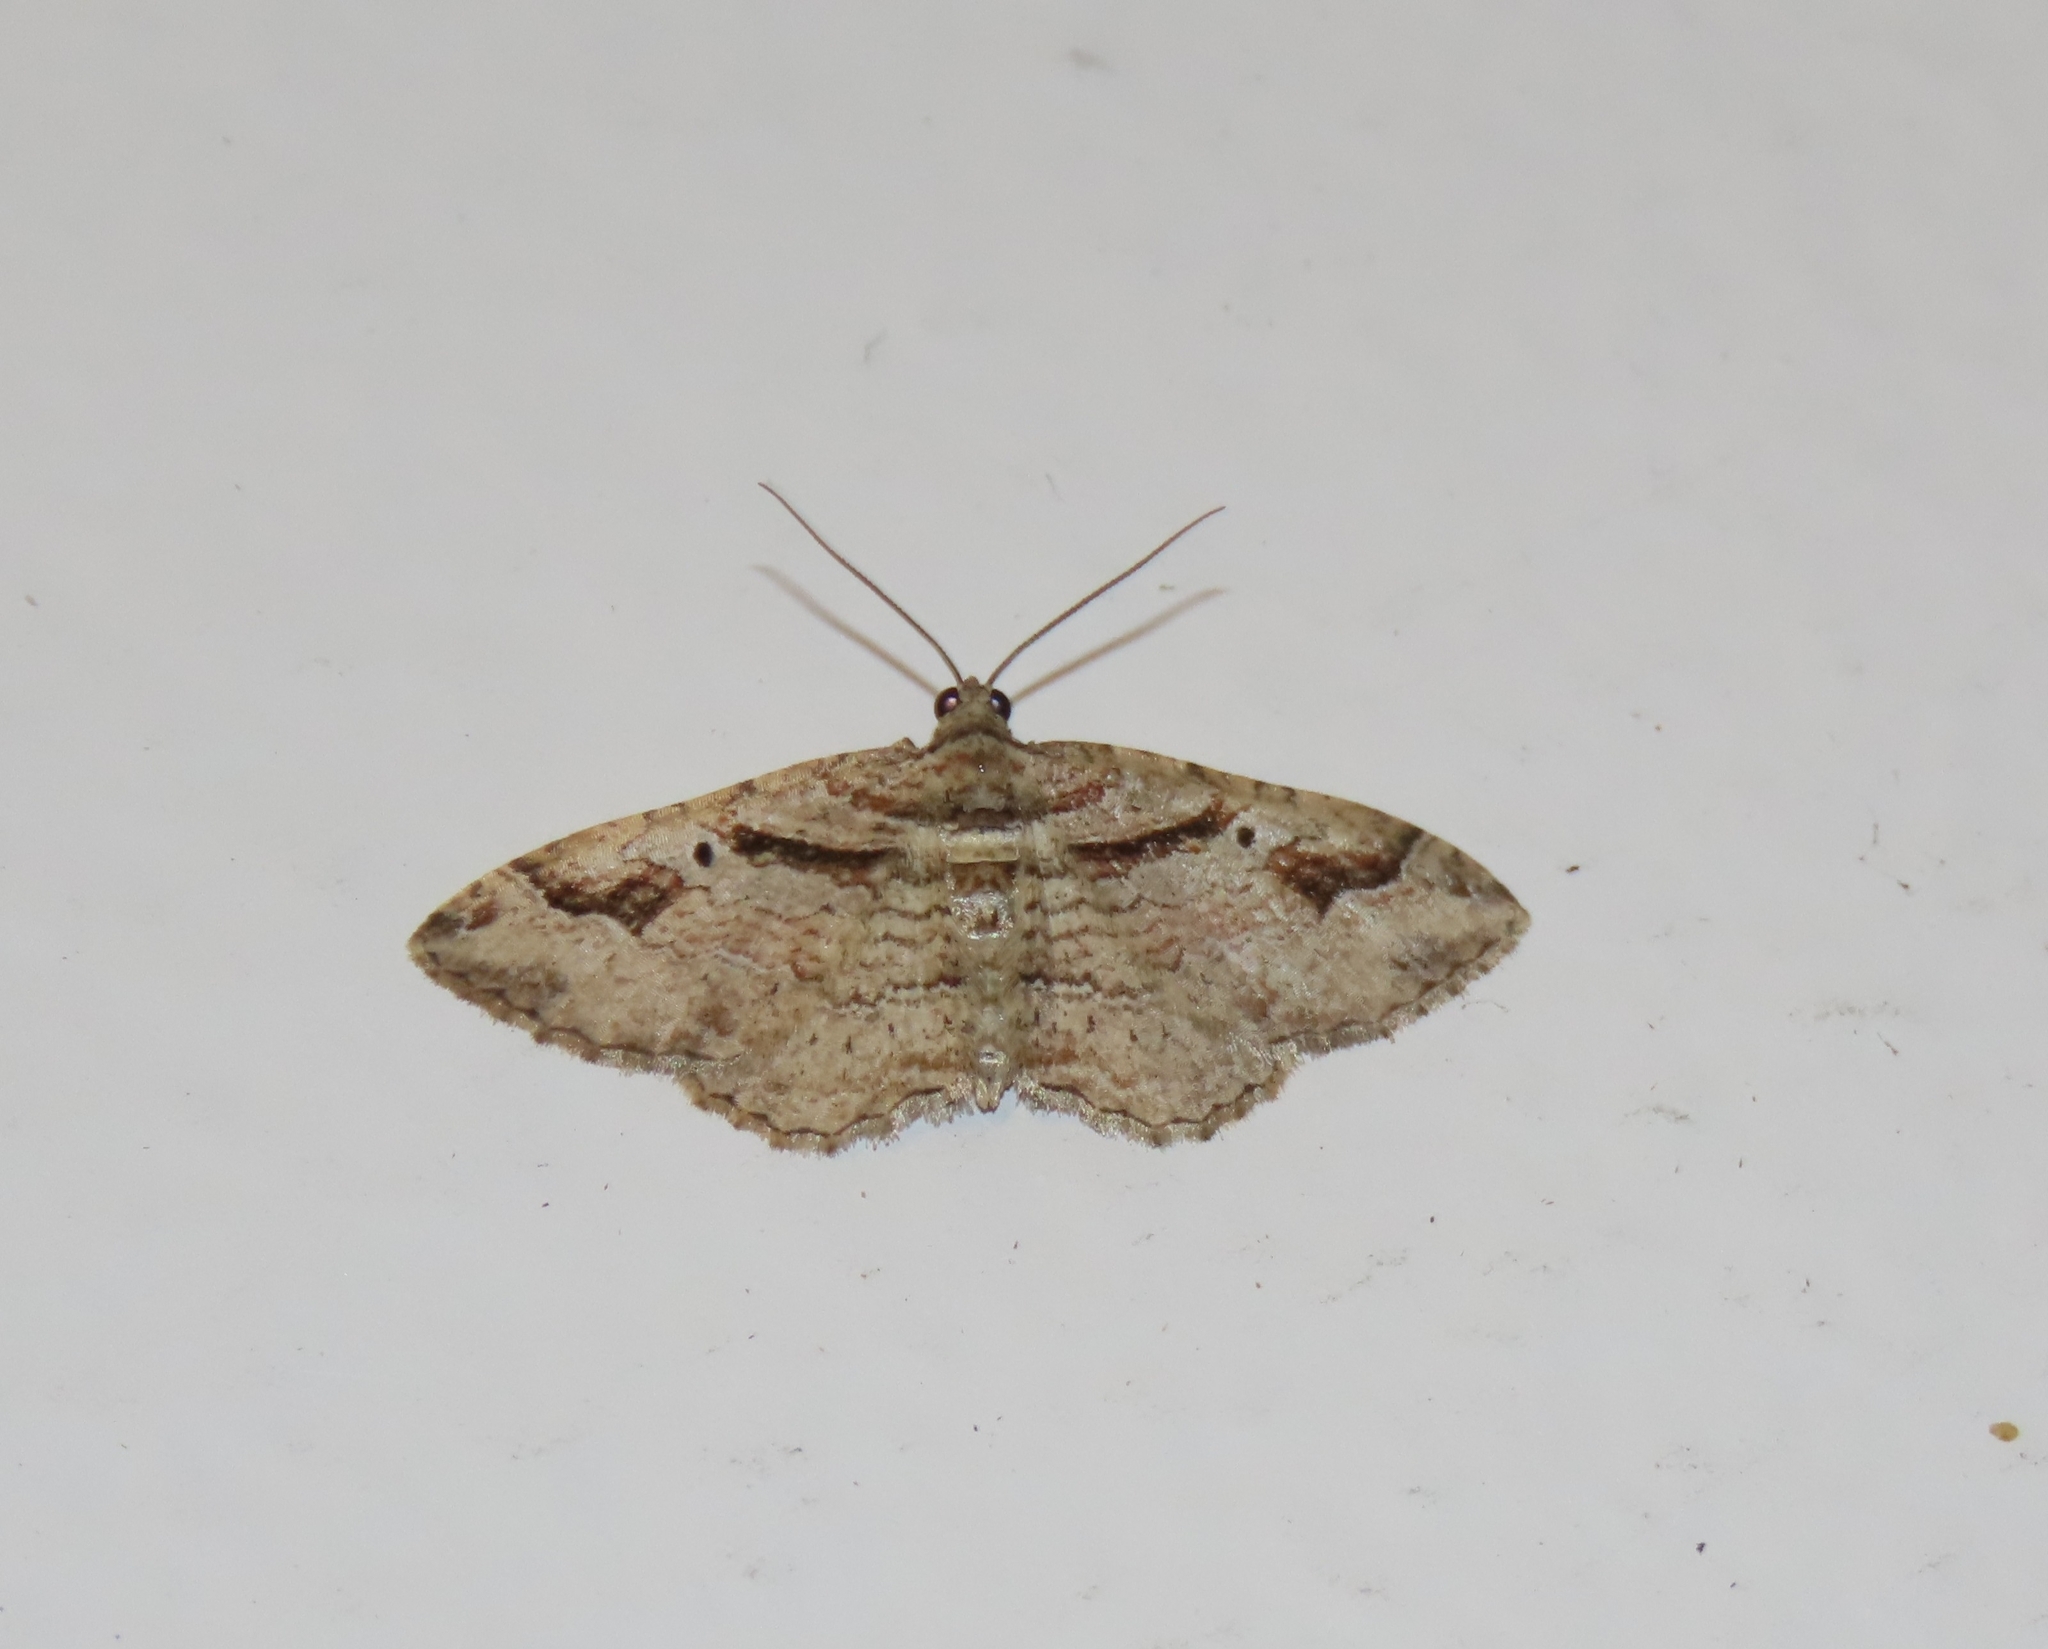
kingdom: Animalia
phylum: Arthropoda
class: Insecta
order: Lepidoptera
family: Geometridae
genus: Costaconvexa
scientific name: Costaconvexa centrostrigaria
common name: Bent-line carpet
